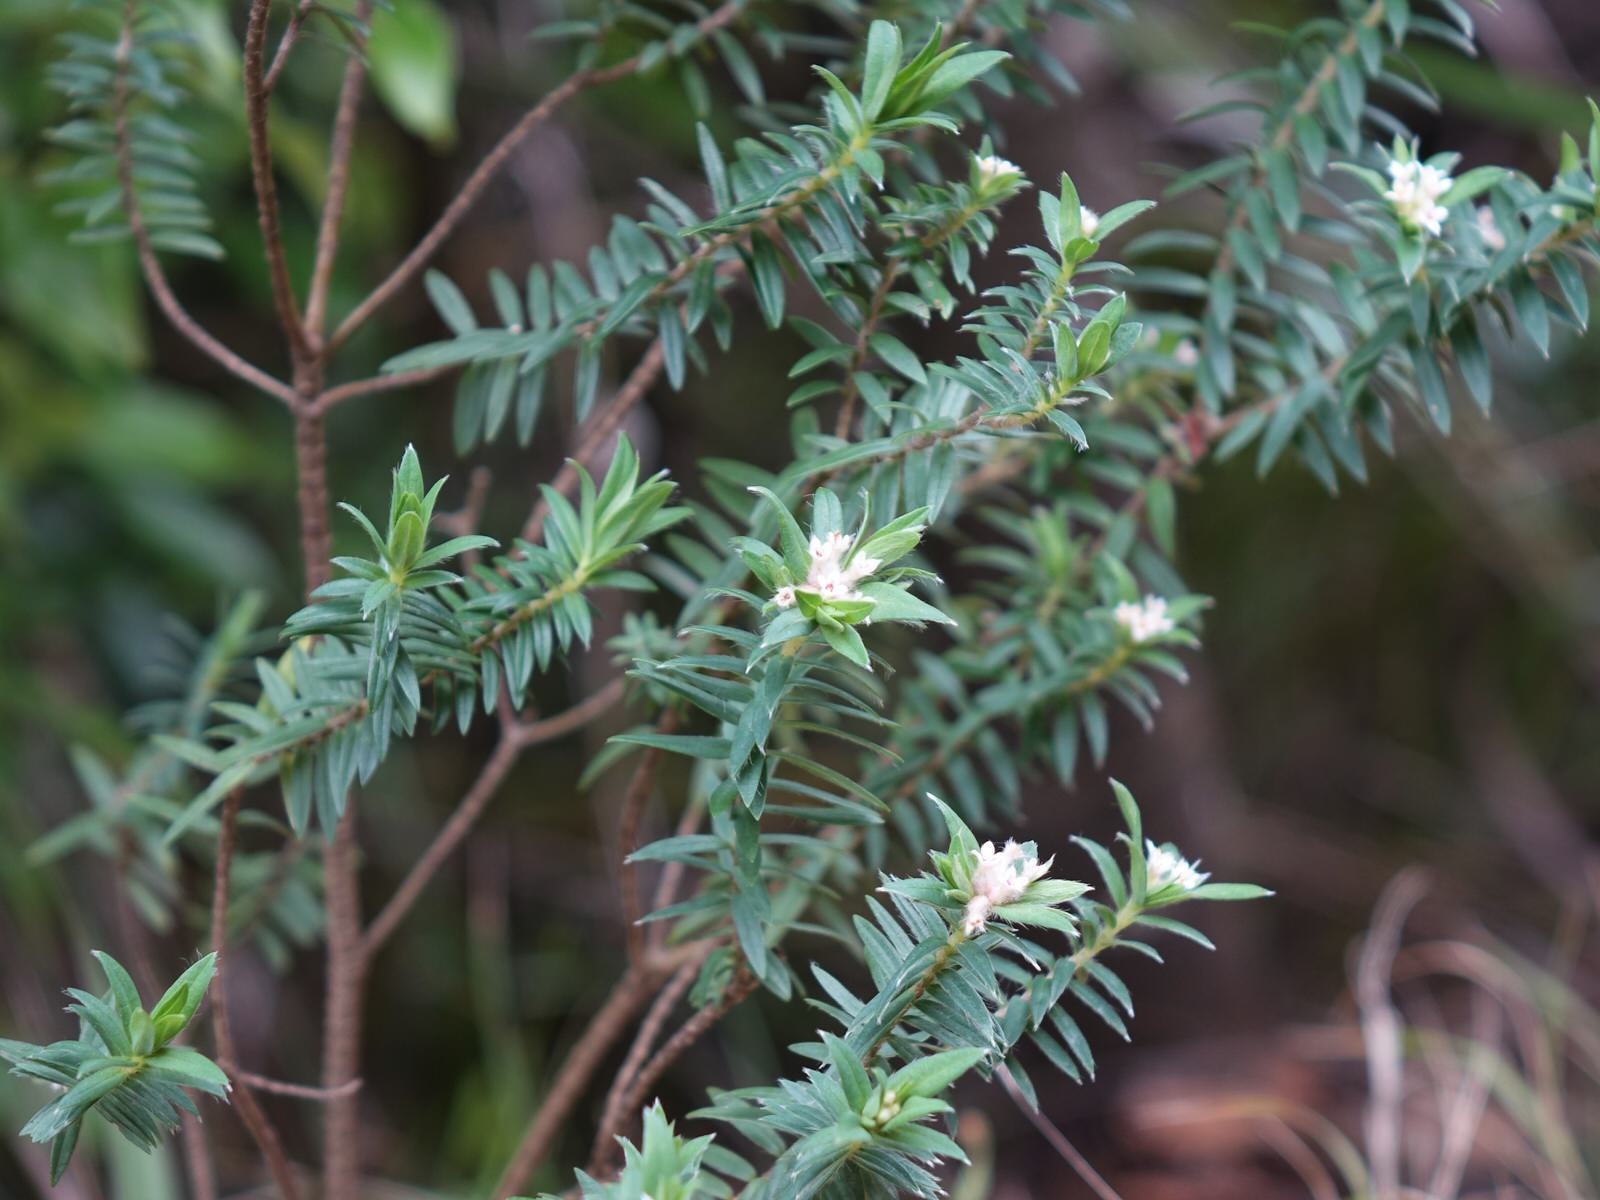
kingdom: Plantae
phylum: Tracheophyta
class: Magnoliopsida
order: Malvales
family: Thymelaeaceae
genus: Pimelea
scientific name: Pimelea tomentosa
